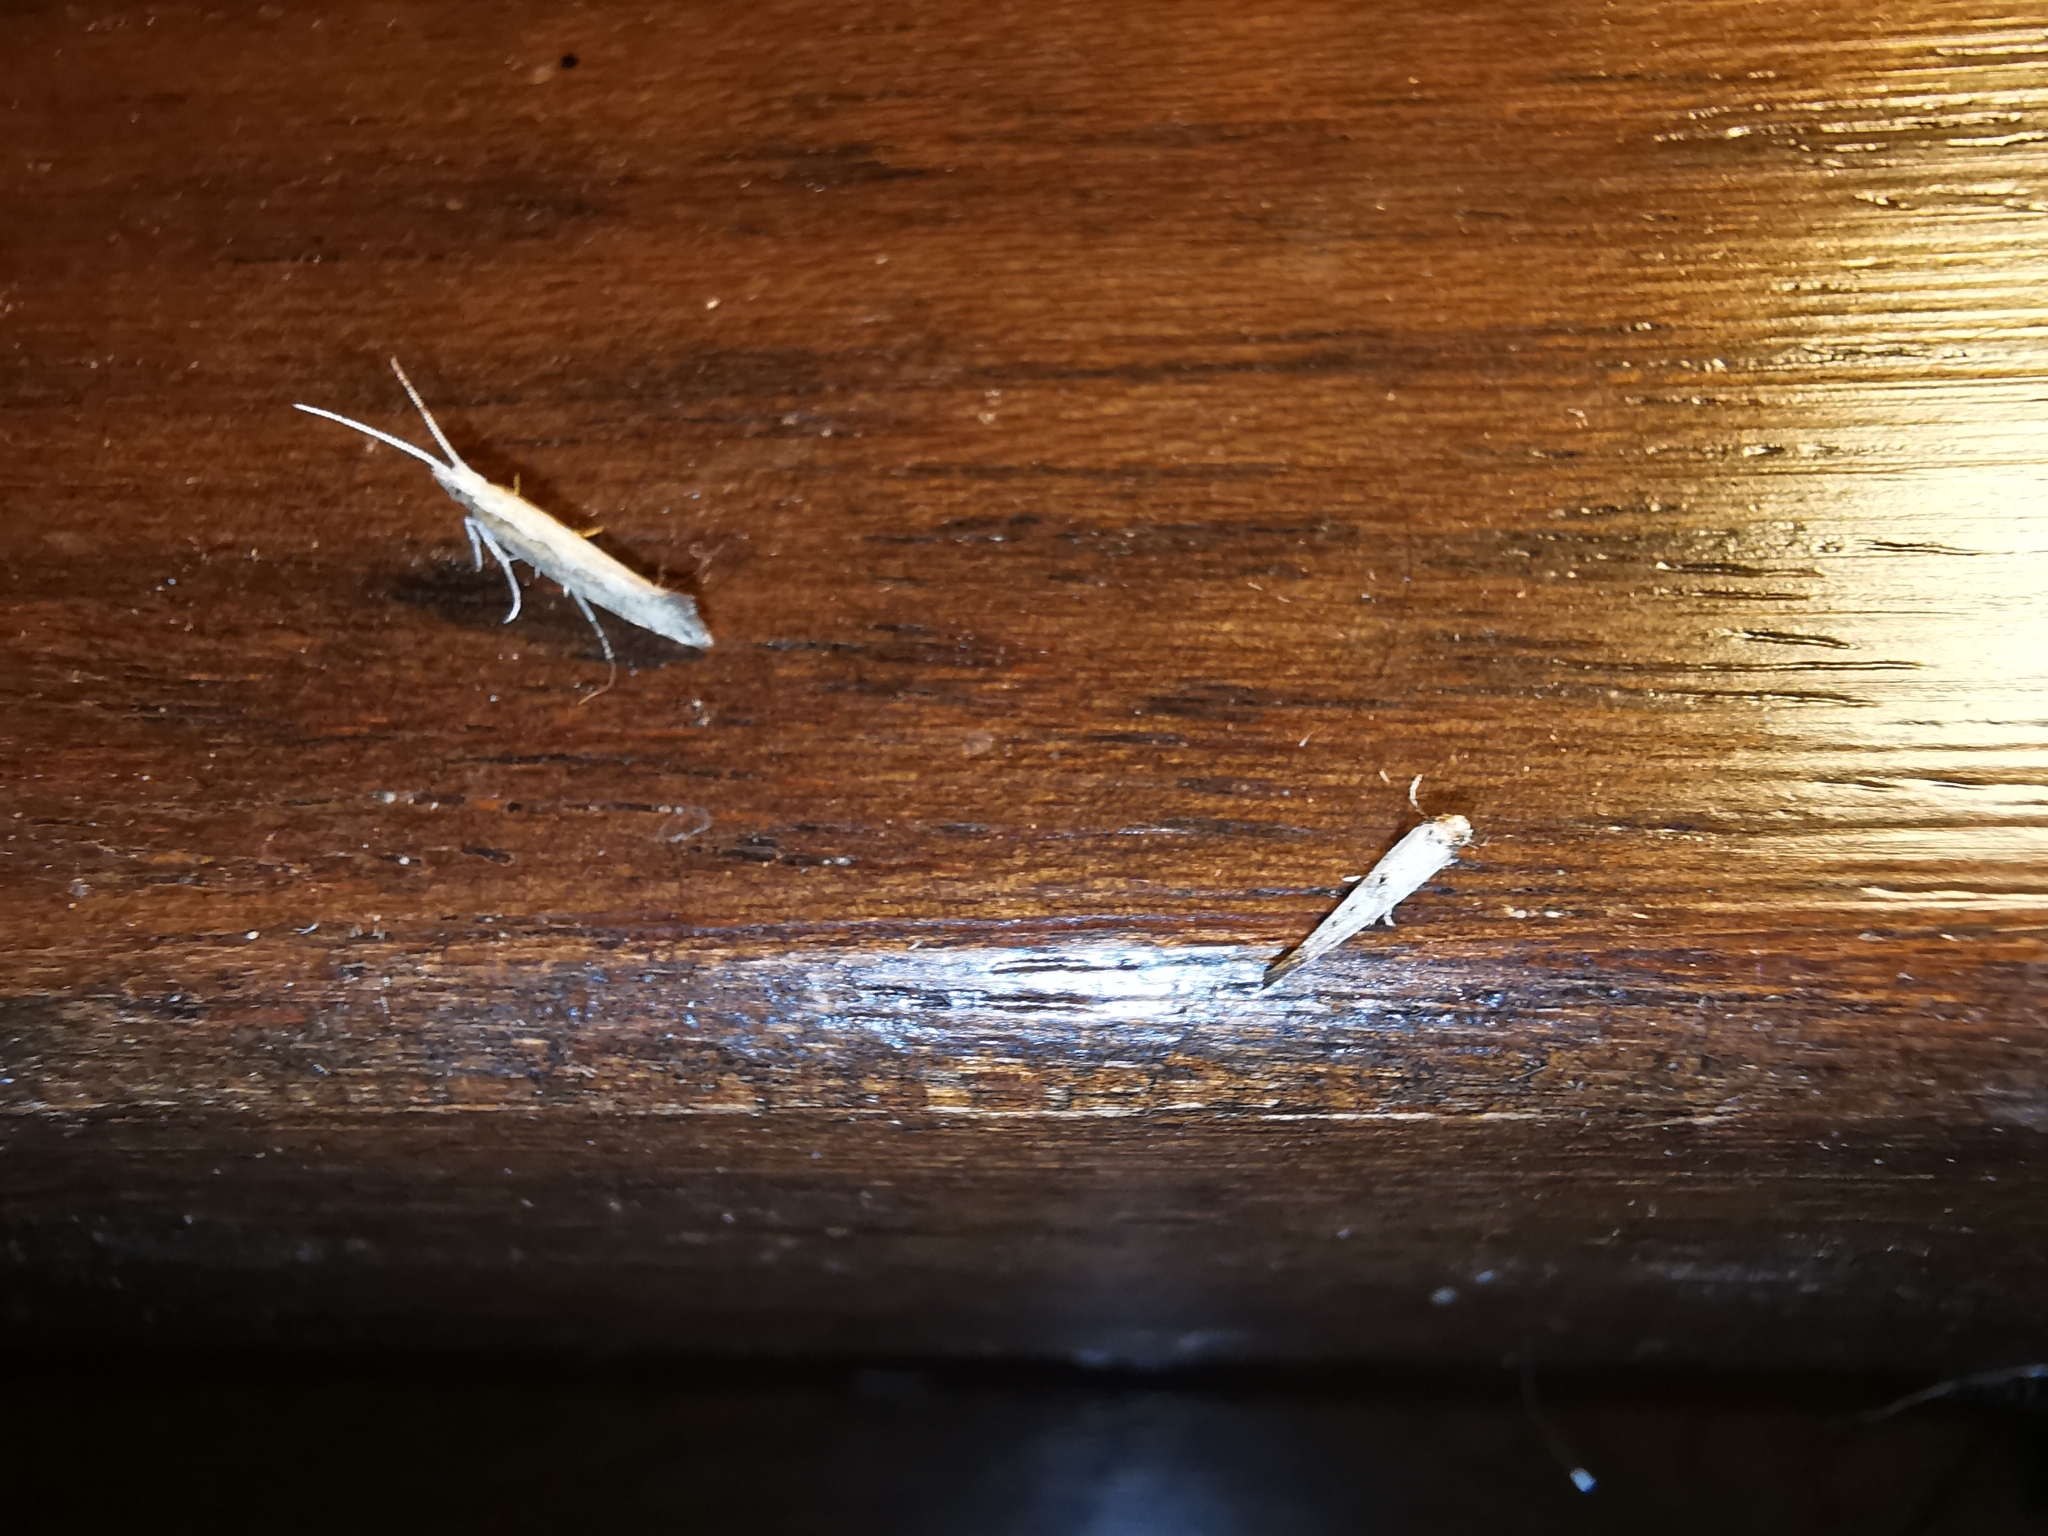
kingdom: Animalia
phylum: Arthropoda
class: Insecta
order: Lepidoptera
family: Plutellidae
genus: Plutella
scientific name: Plutella xylostella
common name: Diamond-back moth
